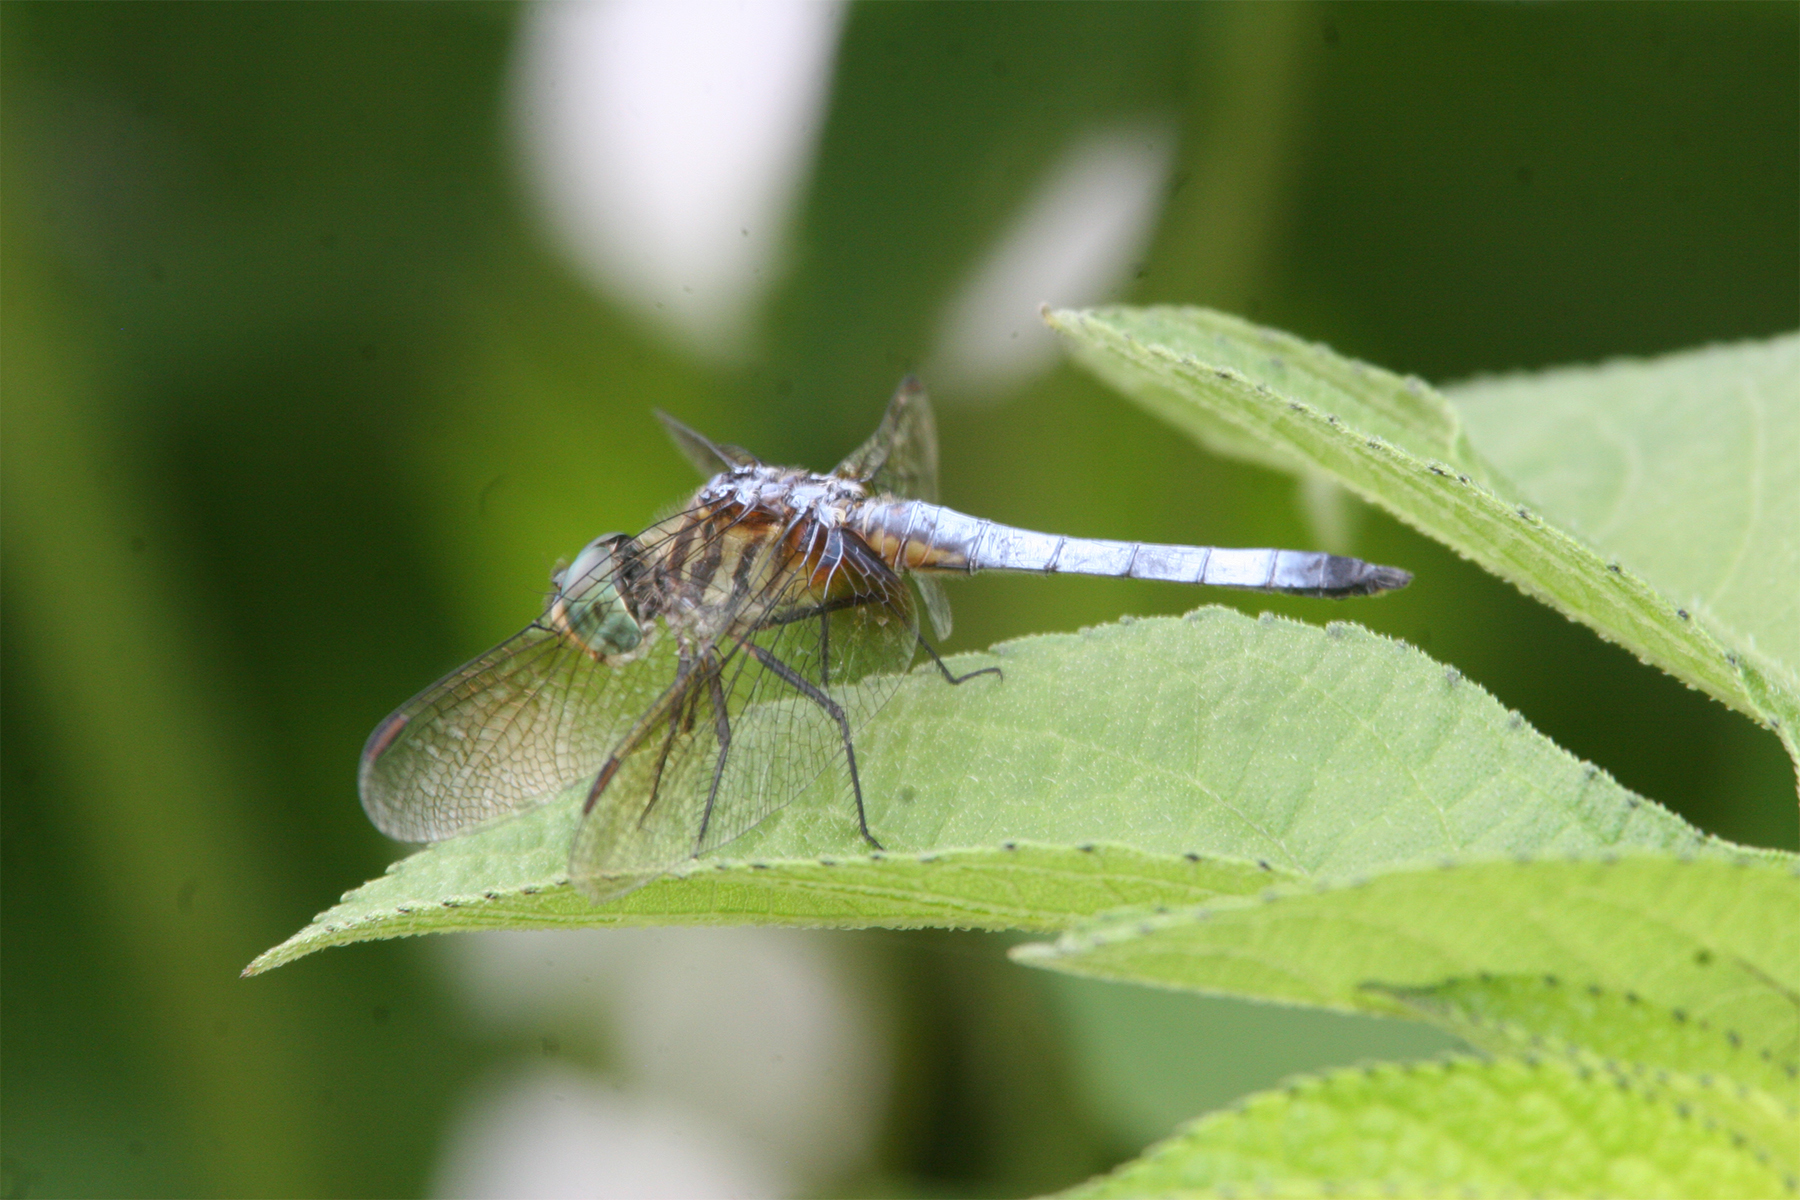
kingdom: Animalia
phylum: Arthropoda
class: Insecta
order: Odonata
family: Libellulidae
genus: Pachydiplax
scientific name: Pachydiplax longipennis
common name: Blue dasher
